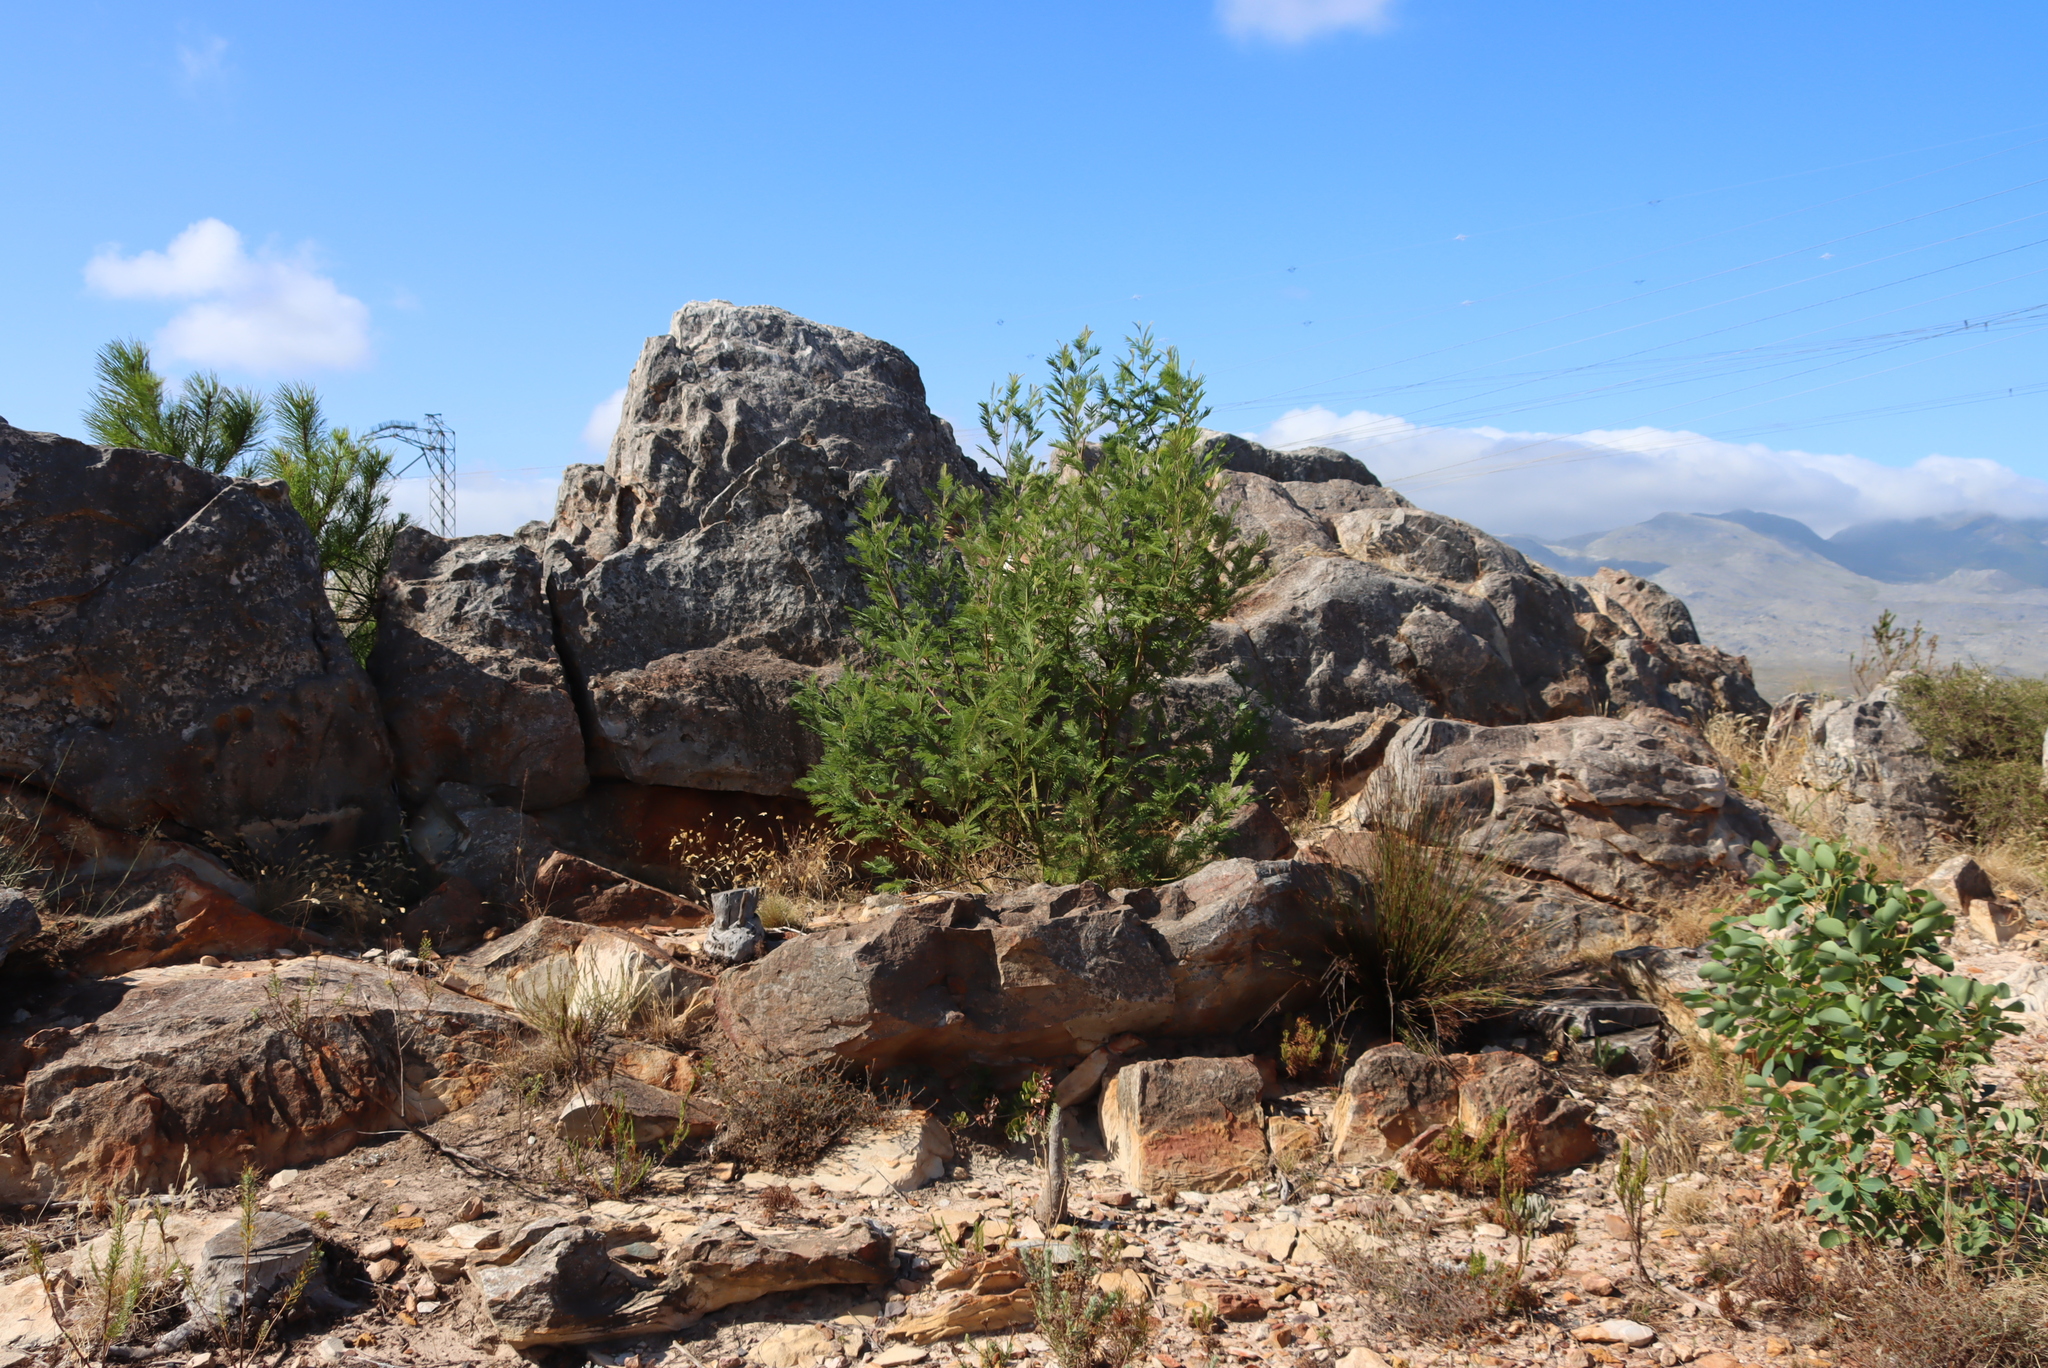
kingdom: Plantae
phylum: Tracheophyta
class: Magnoliopsida
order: Fabales
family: Fabaceae
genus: Acacia
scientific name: Acacia mearnsii
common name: Black wattle
